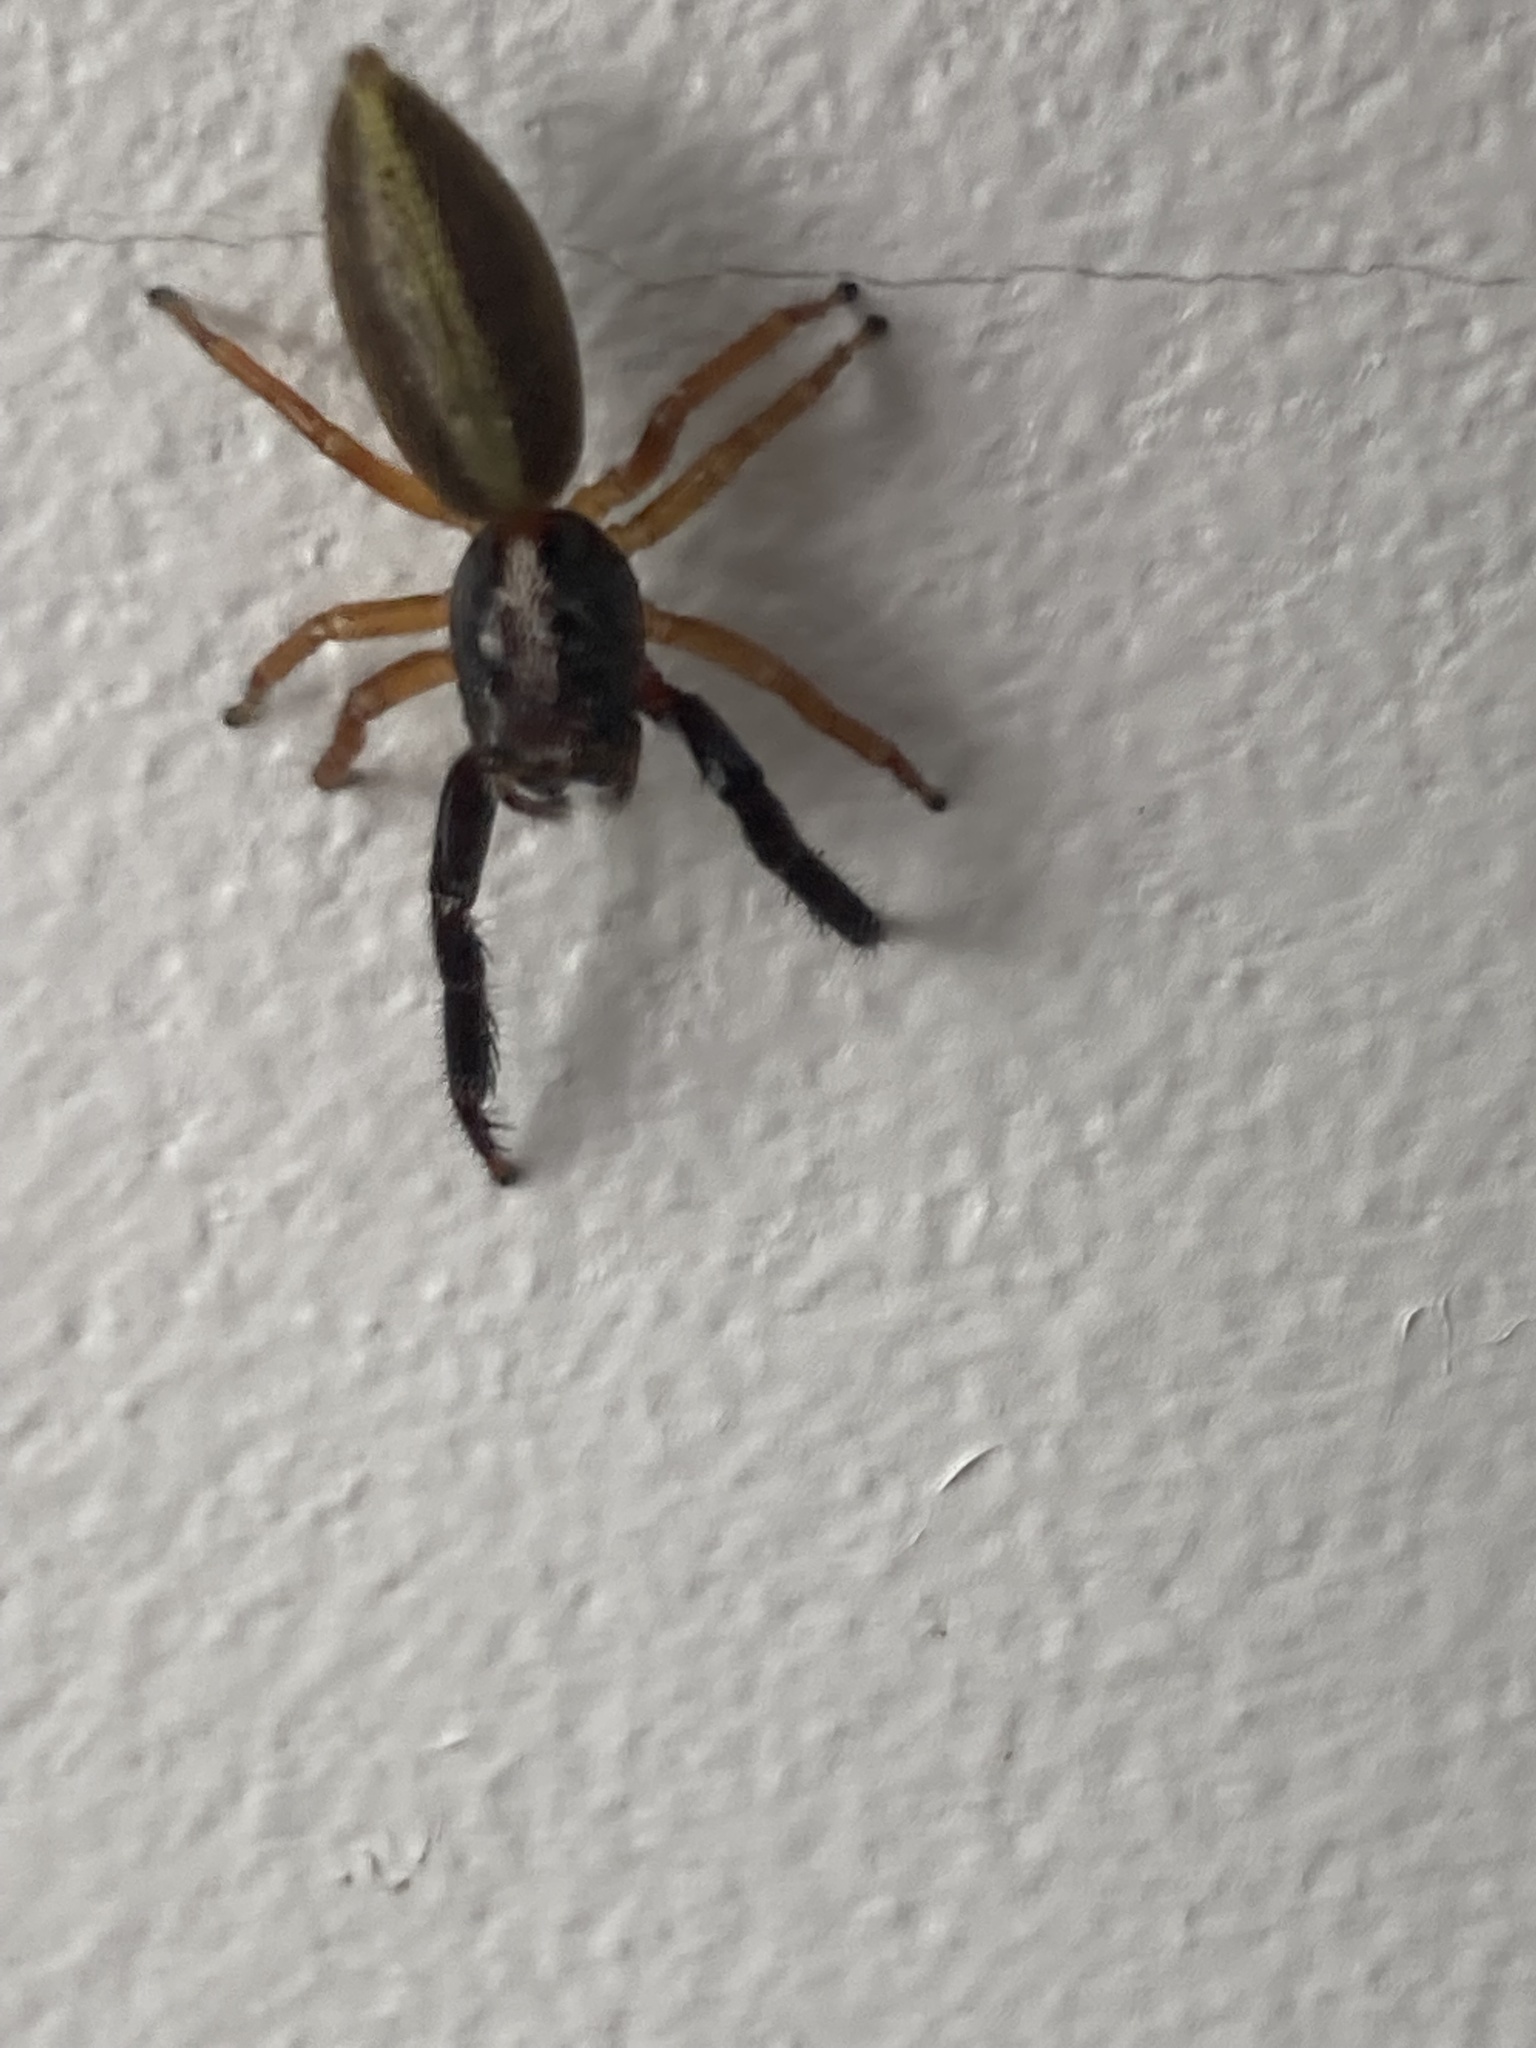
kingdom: Animalia
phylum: Arthropoda
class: Arachnida
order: Araneae
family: Salticidae
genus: Trite
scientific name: Trite planiceps
